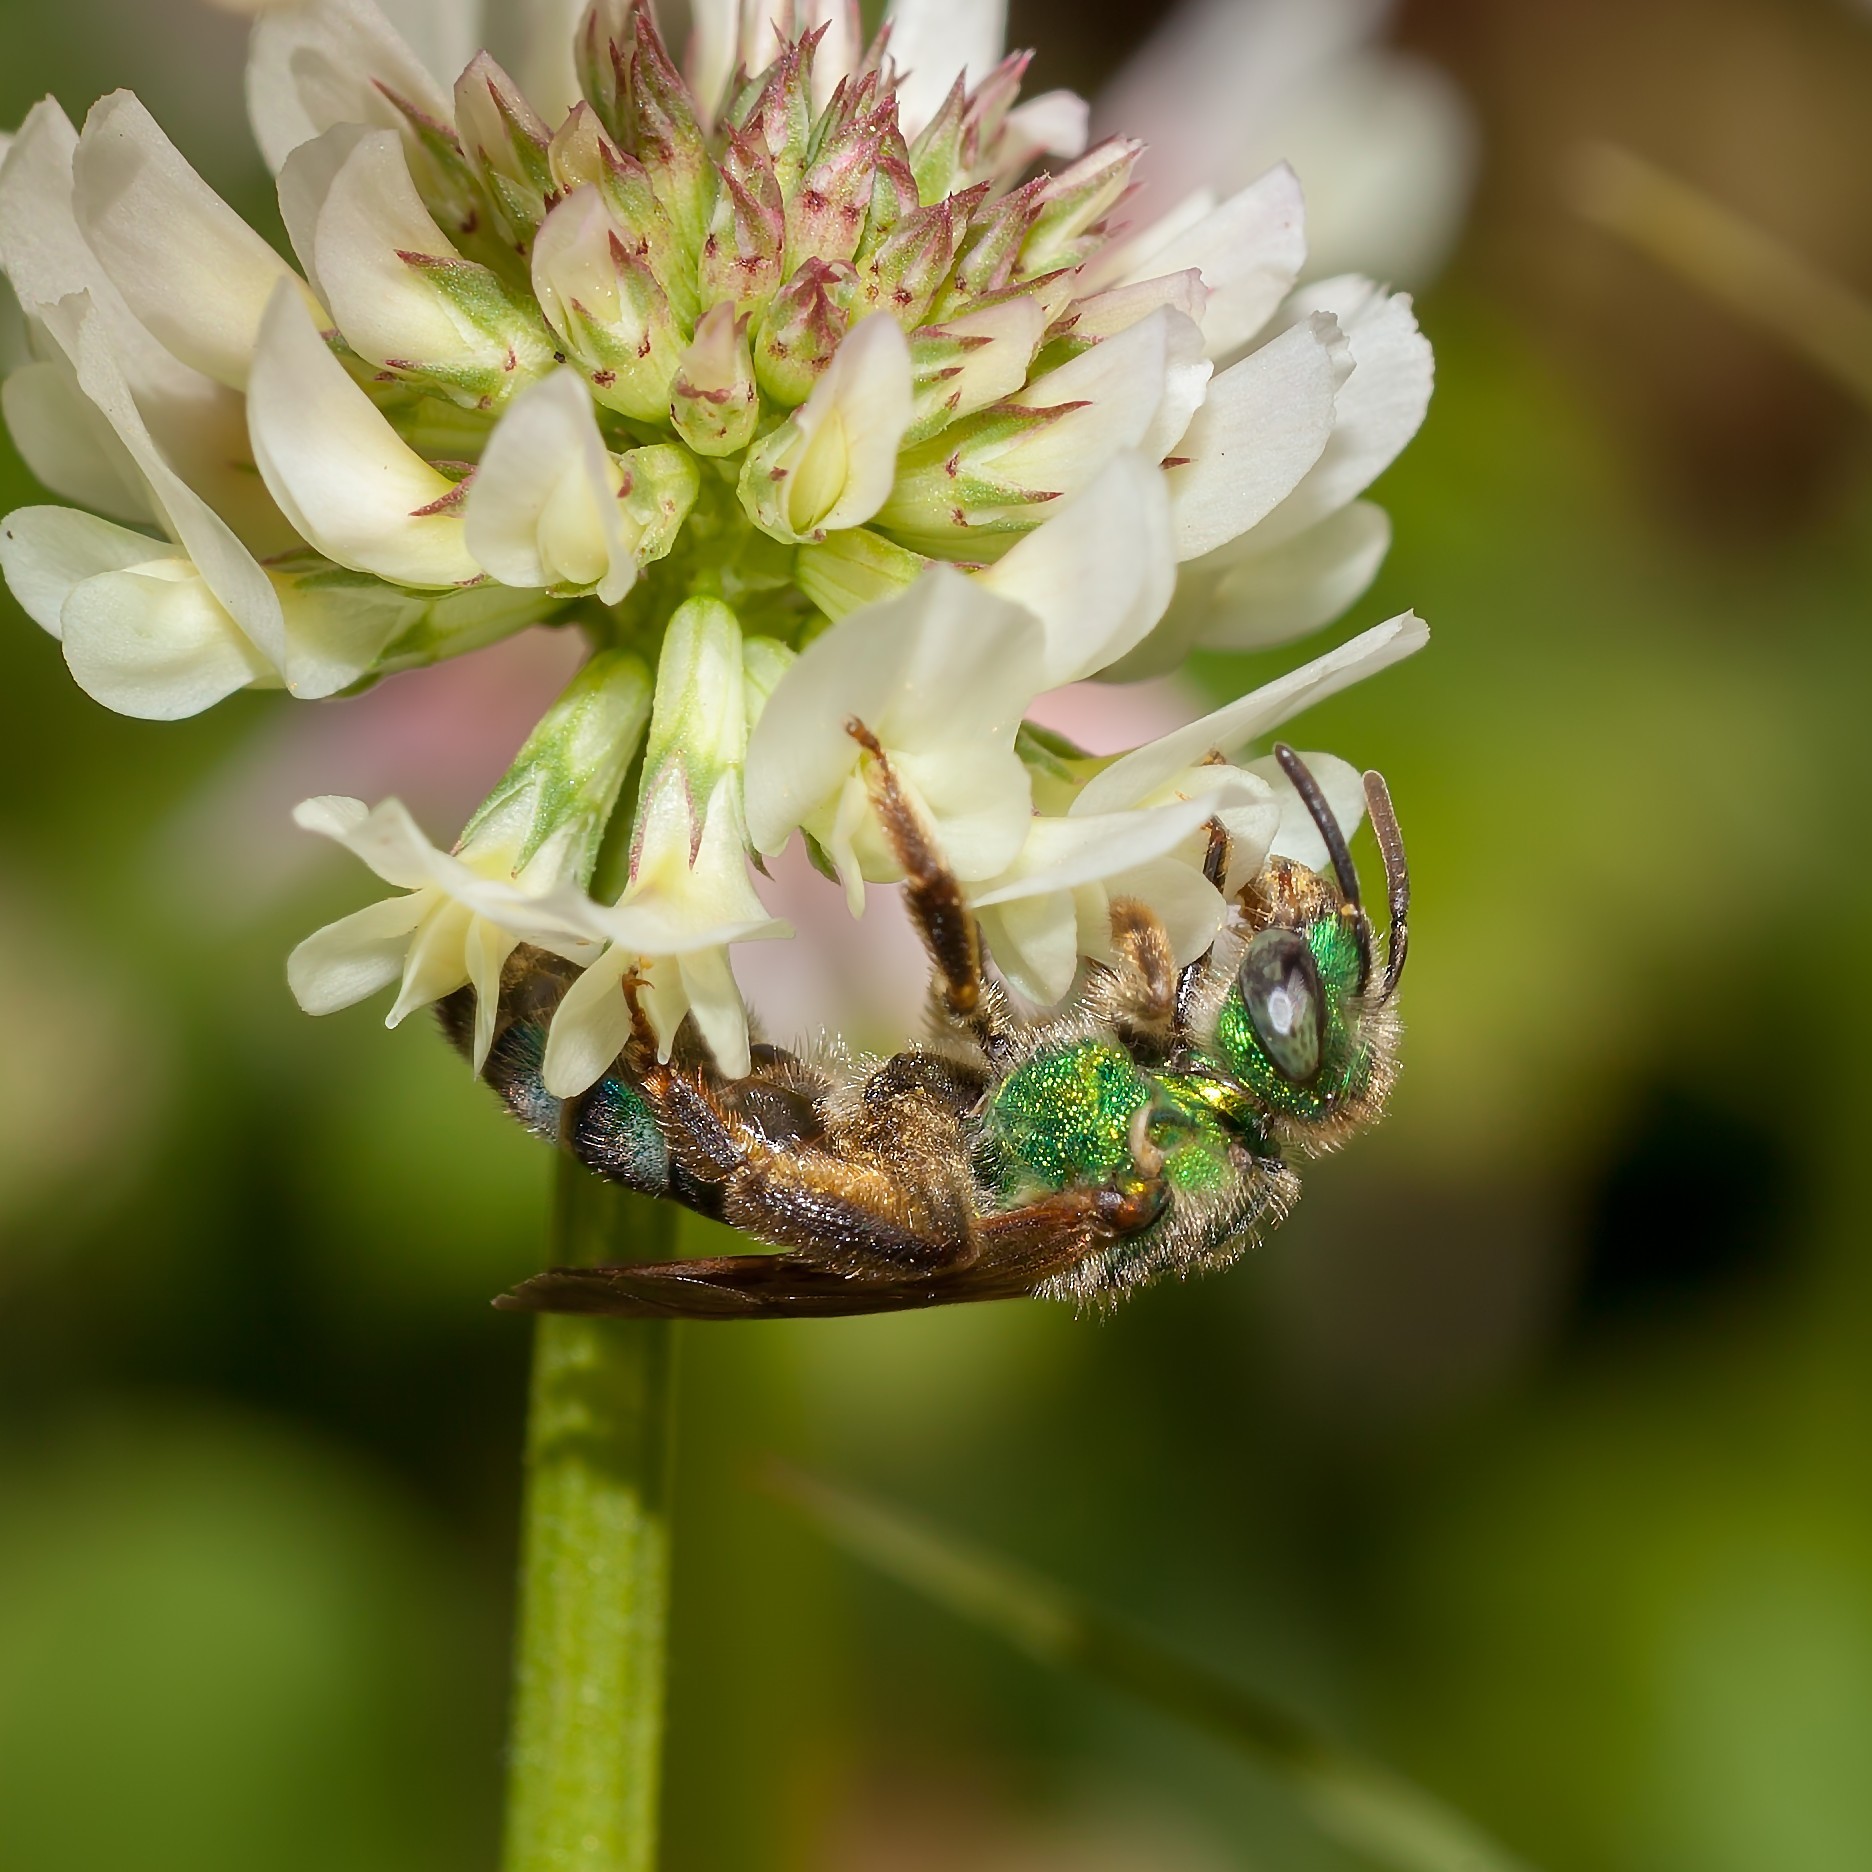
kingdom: Animalia
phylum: Arthropoda
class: Insecta
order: Hymenoptera
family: Halictidae
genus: Agapostemon
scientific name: Agapostemon splendens
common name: Brown-winged striped sweat bee
